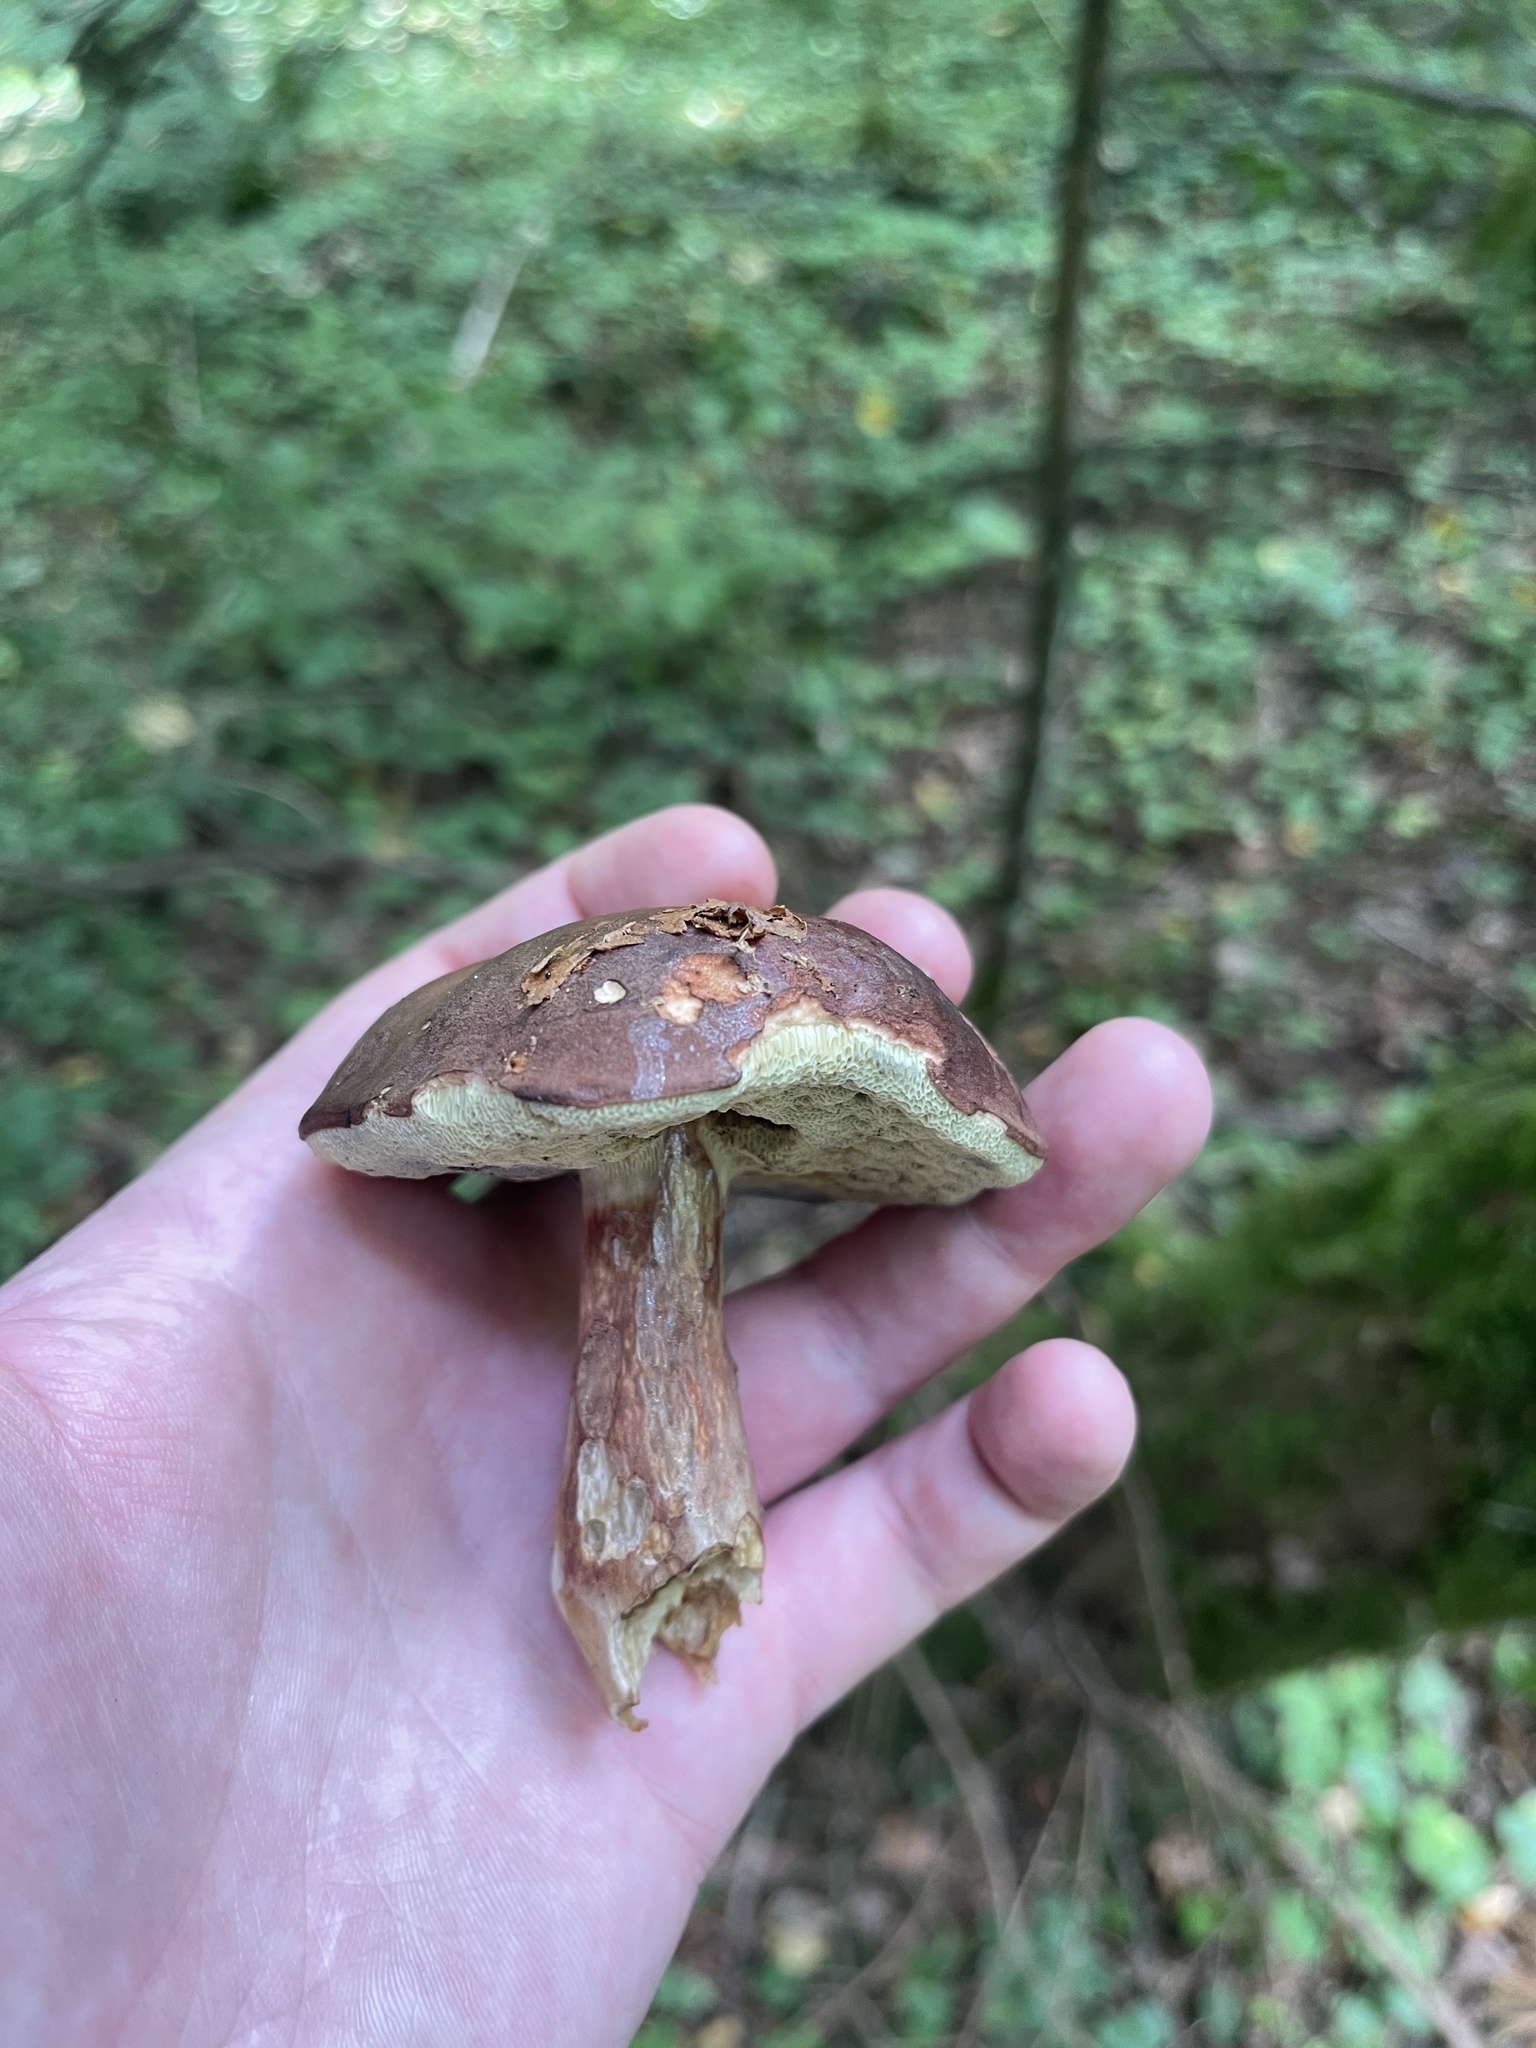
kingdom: Fungi
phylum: Basidiomycota
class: Agaricomycetes
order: Boletales
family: Boletaceae
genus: Imleria
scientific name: Imleria badia
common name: Bay bolete
